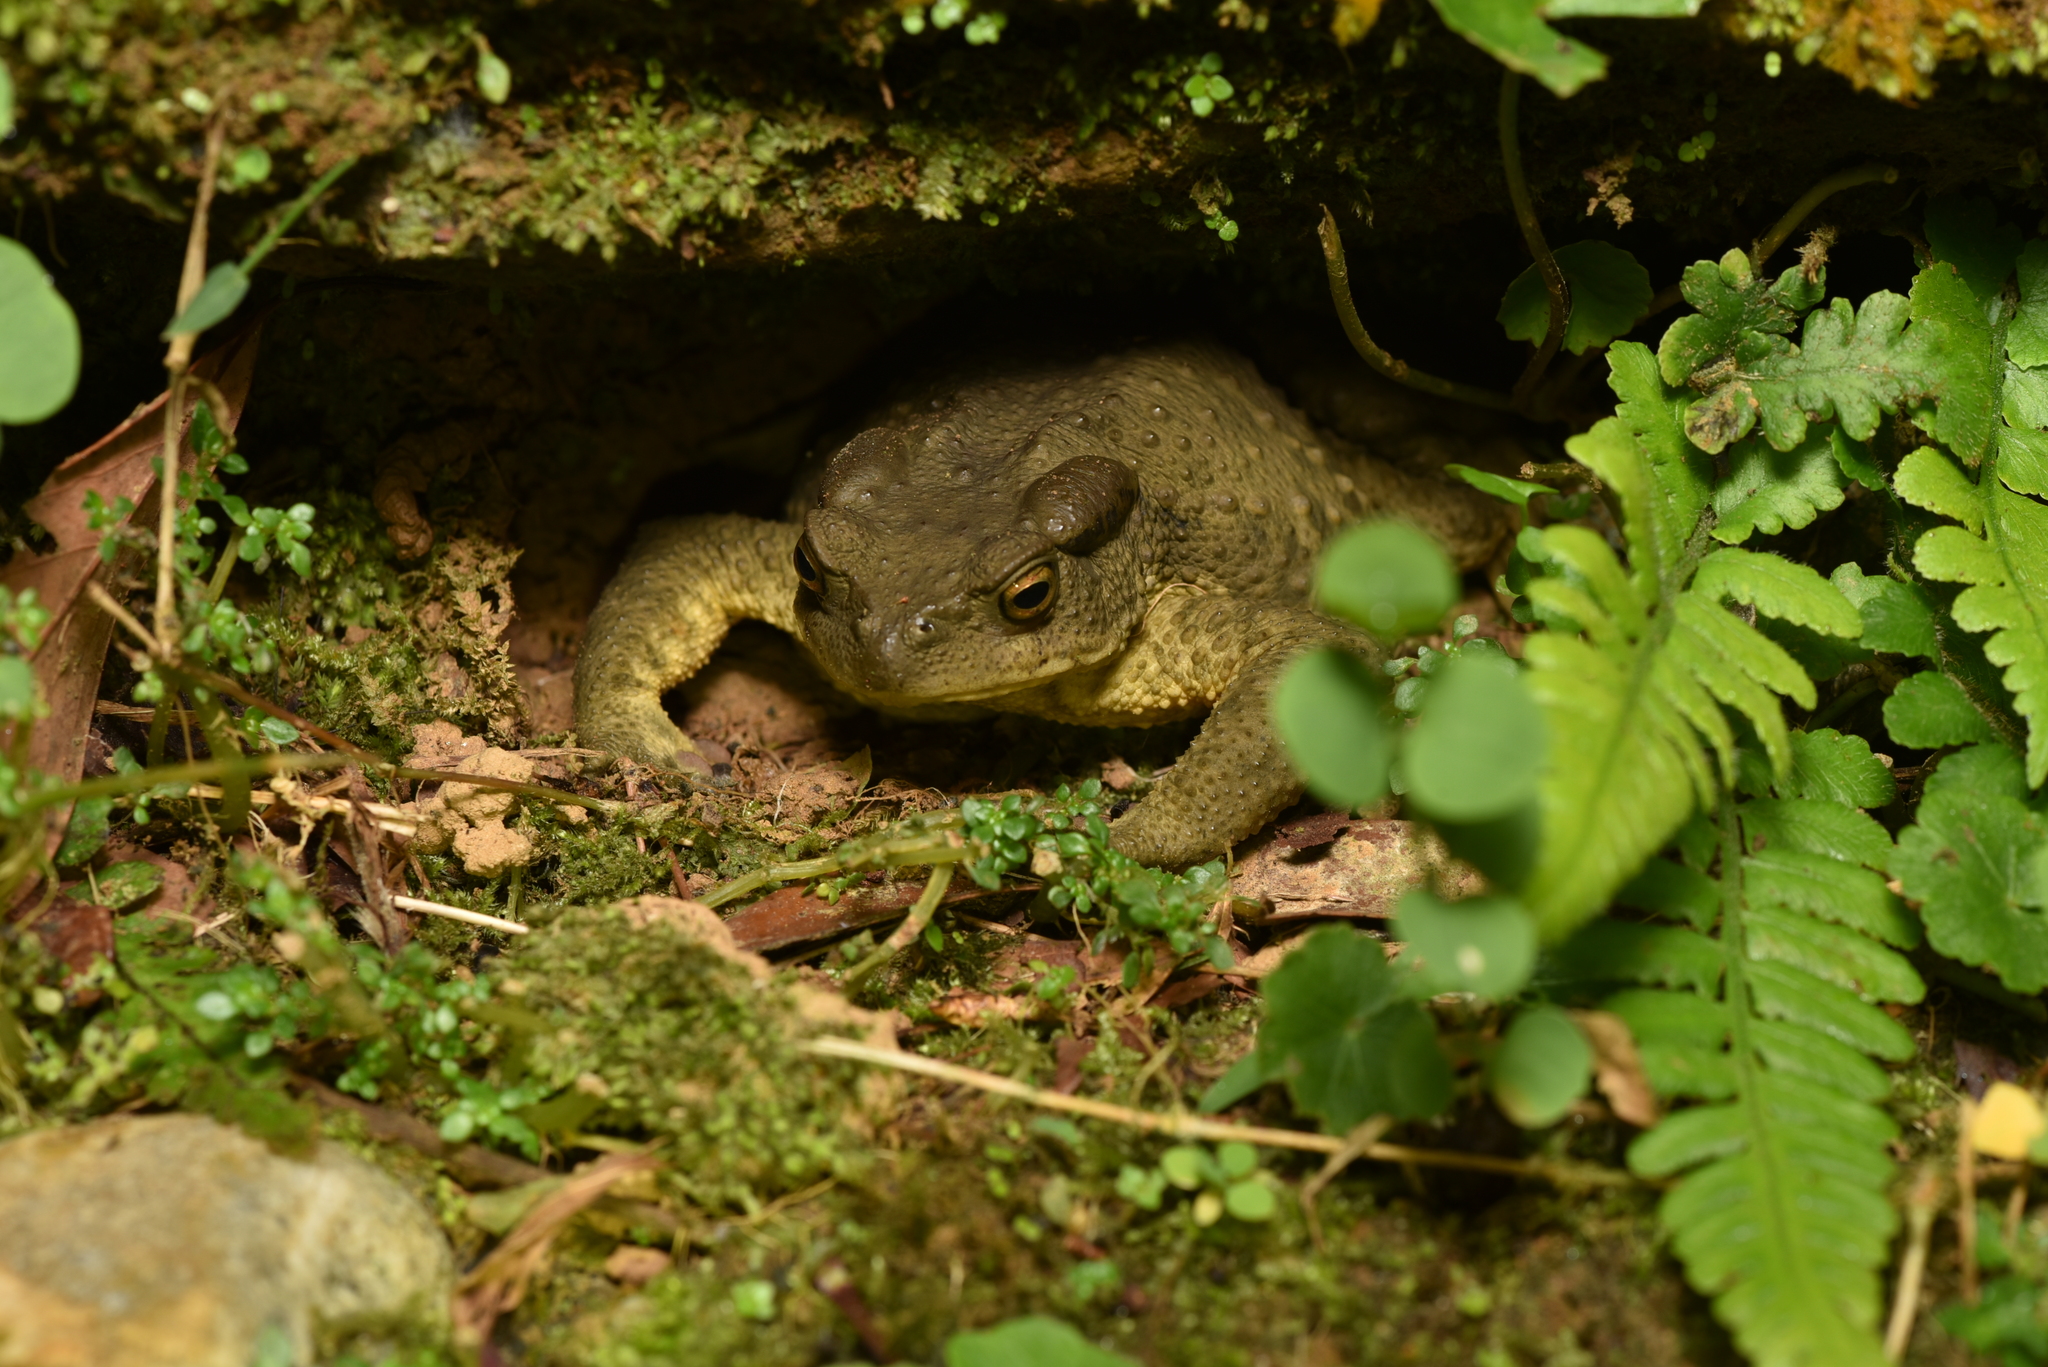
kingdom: Animalia
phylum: Chordata
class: Amphibia
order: Anura
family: Bufonidae
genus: Bufo
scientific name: Bufo bankorensis
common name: Bankor toad
